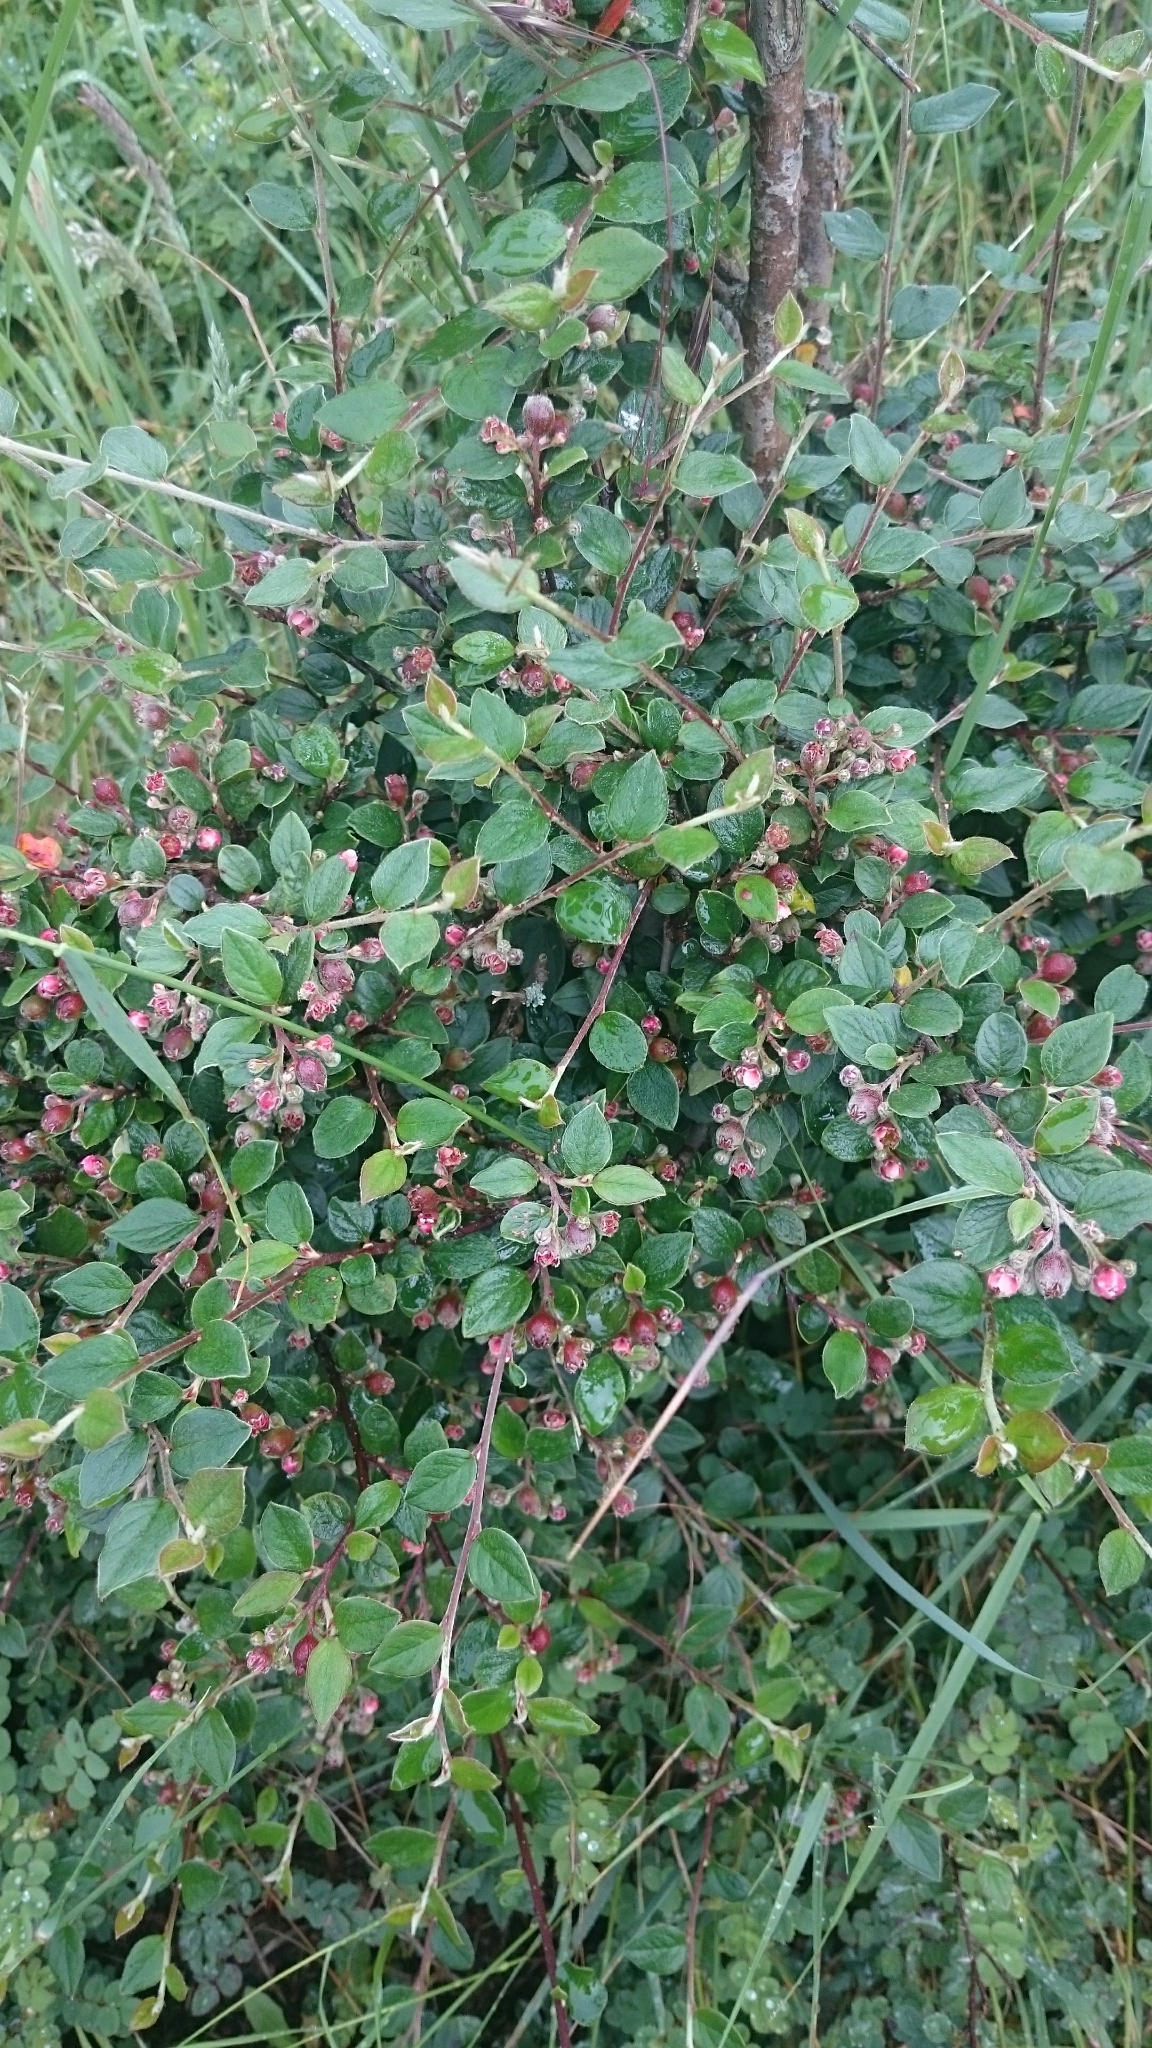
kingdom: Plantae
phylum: Tracheophyta
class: Magnoliopsida
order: Rosales
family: Rosaceae
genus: Cotoneaster
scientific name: Cotoneaster dielsianus
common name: Diels's cotoneaster
